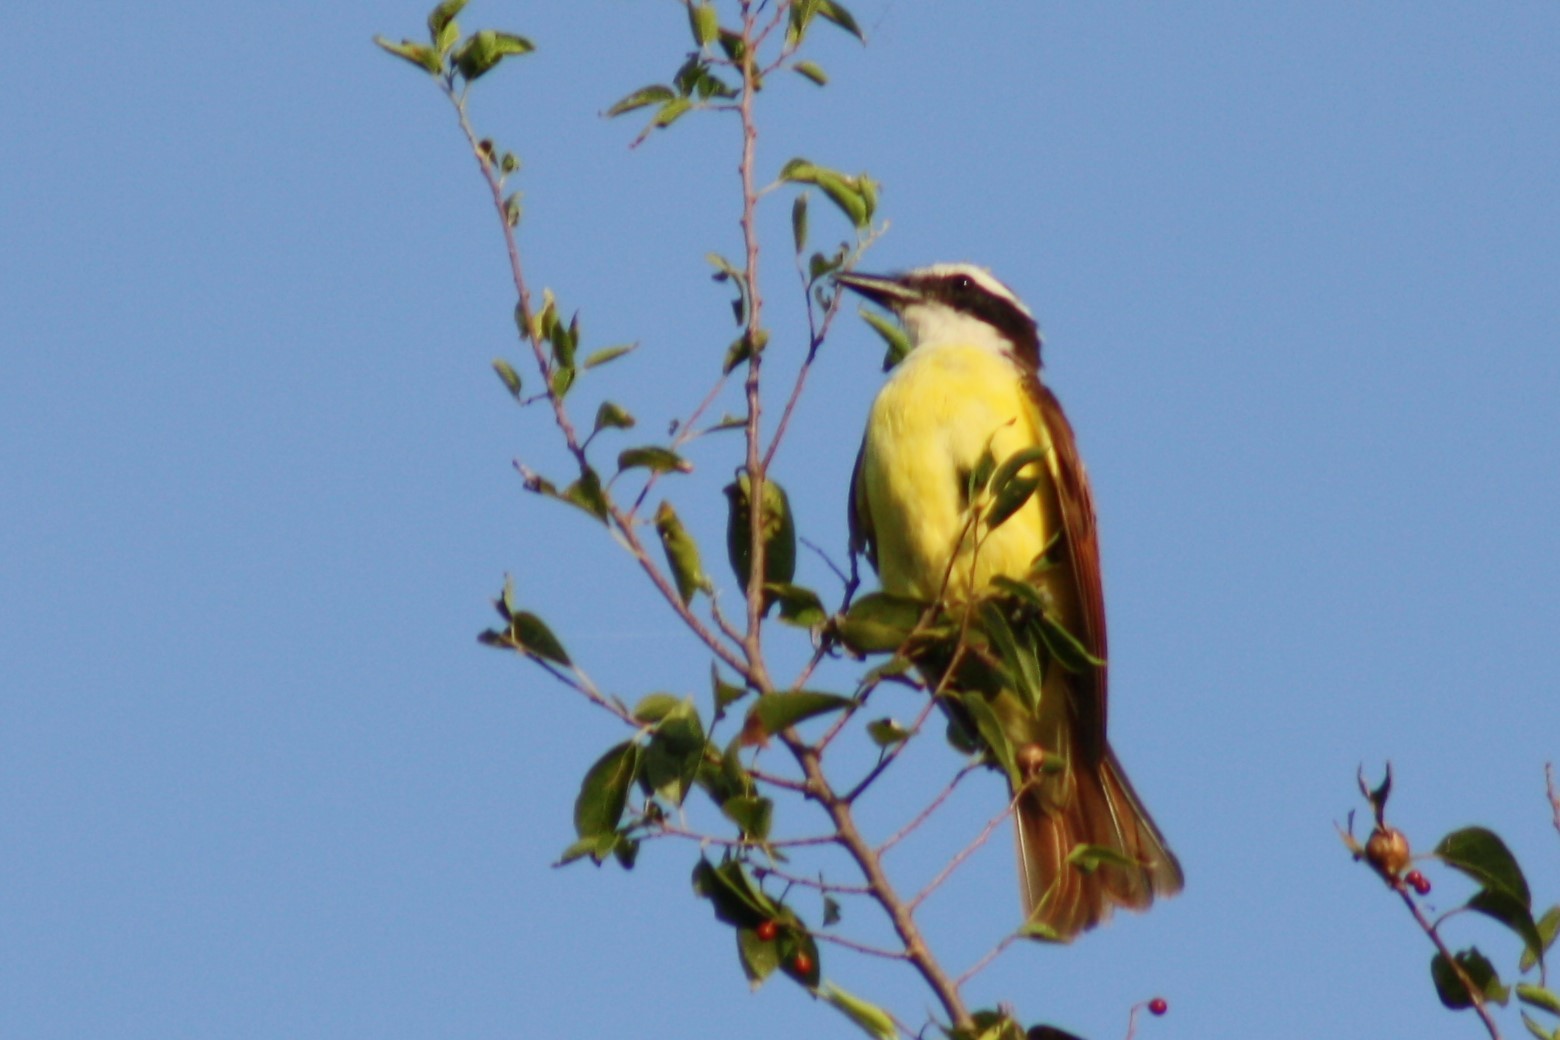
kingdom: Animalia
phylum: Chordata
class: Aves
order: Passeriformes
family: Tyrannidae
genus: Pitangus
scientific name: Pitangus sulphuratus
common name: Great kiskadee
